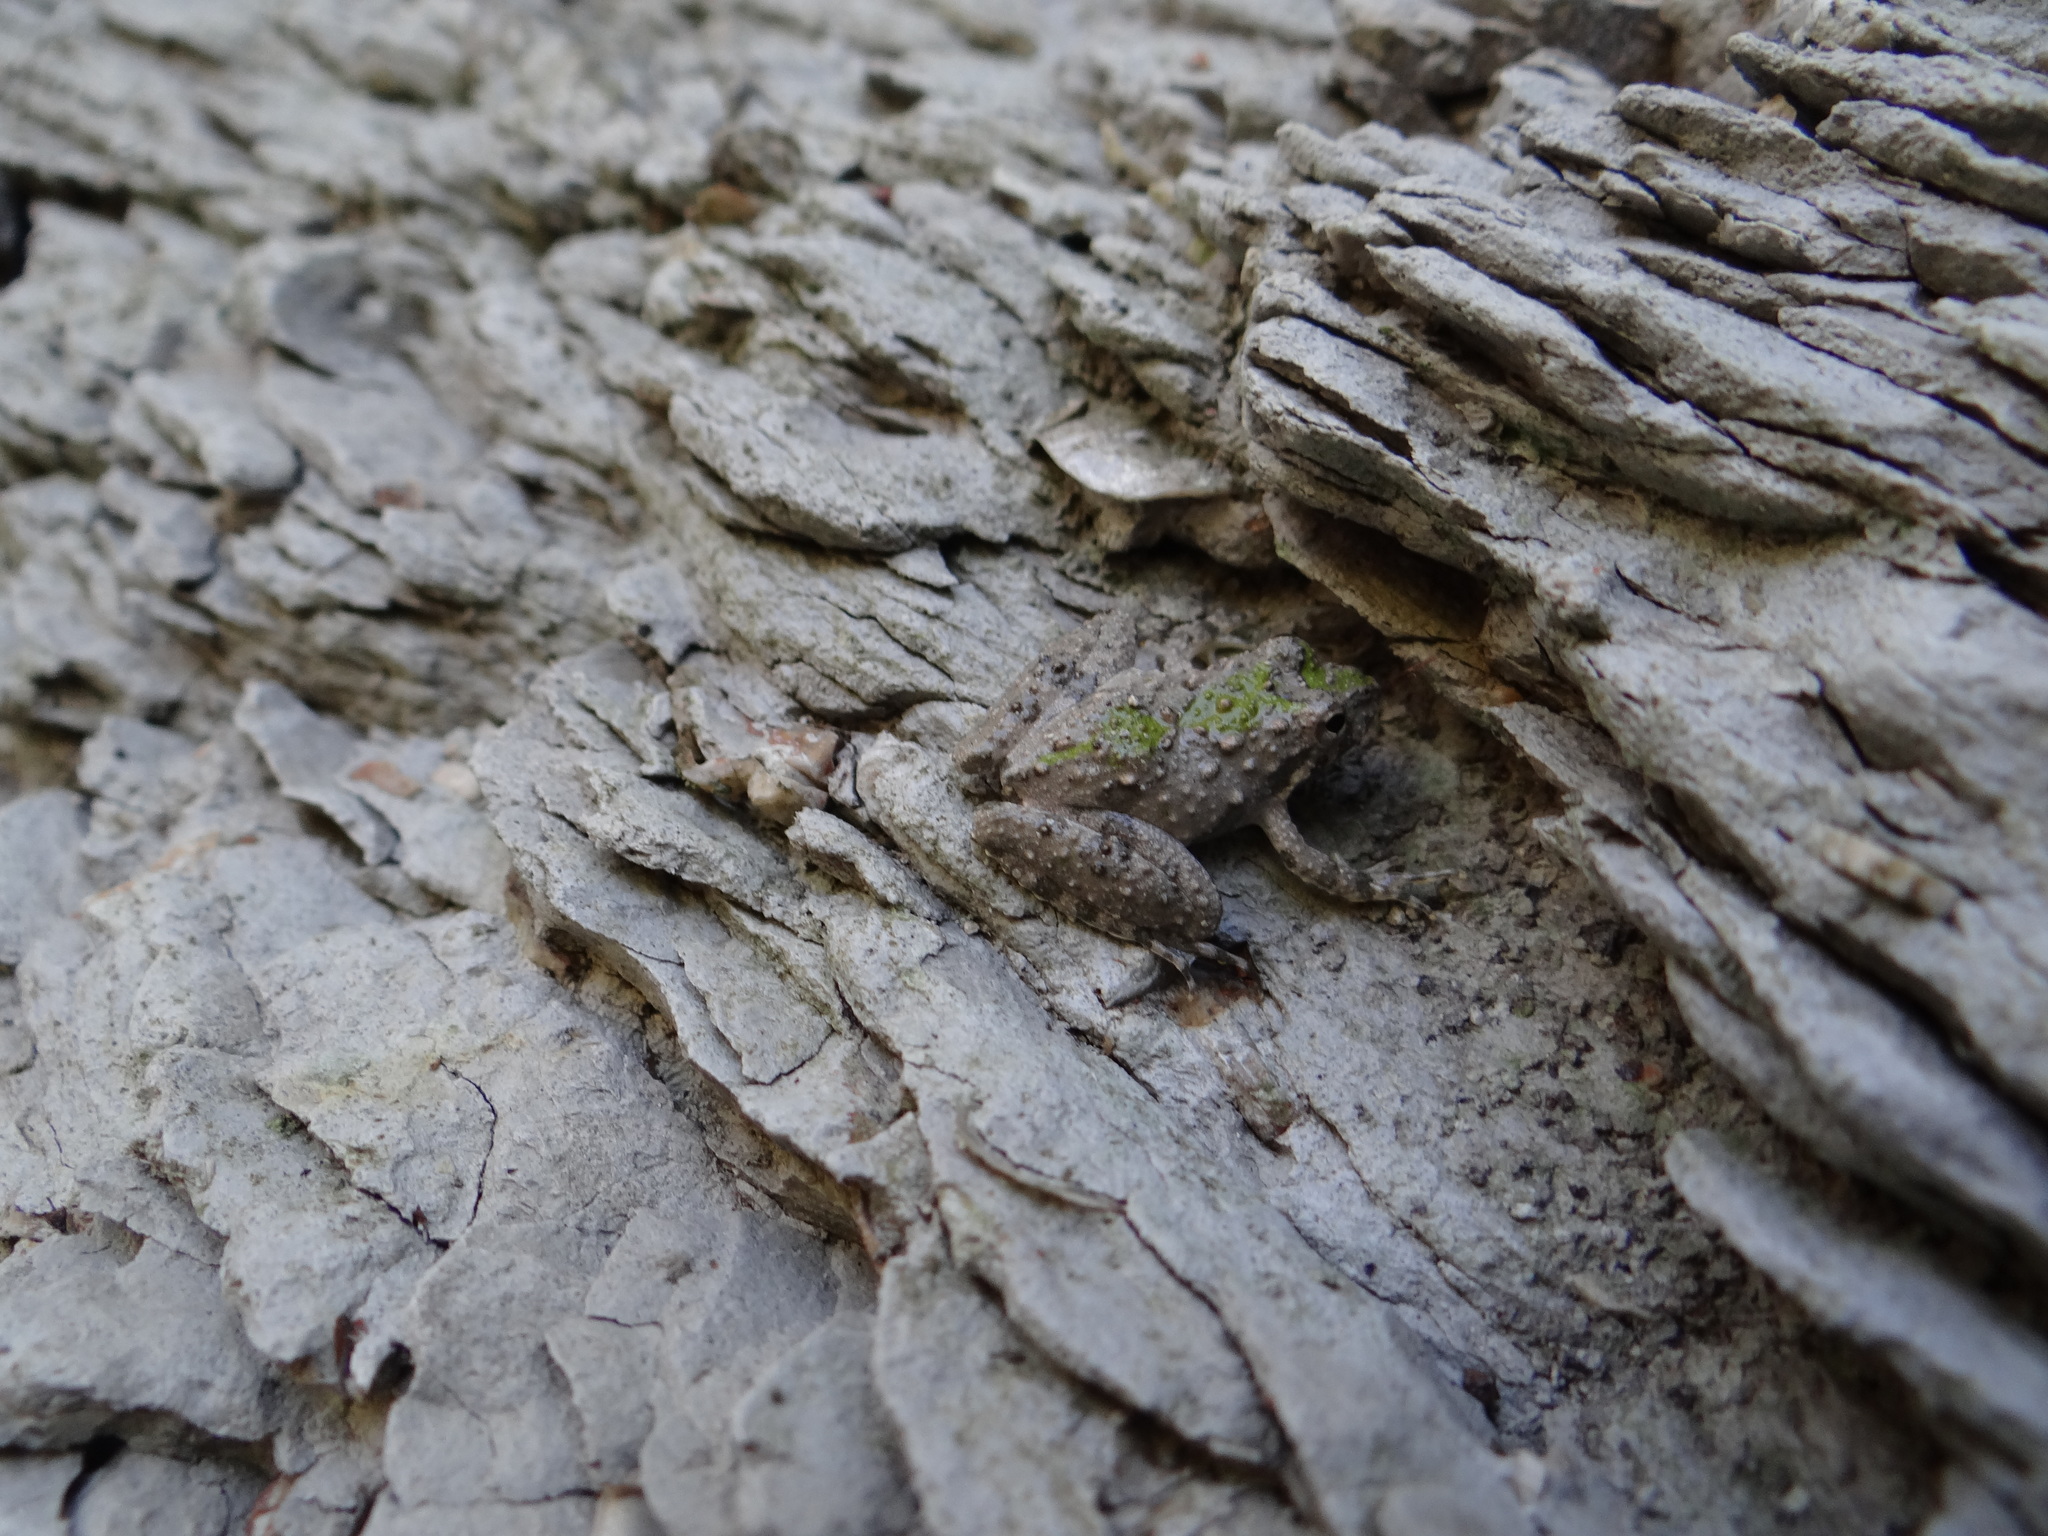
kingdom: Animalia
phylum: Chordata
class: Amphibia
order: Anura
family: Hylidae
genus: Acris
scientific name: Acris blanchardi
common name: Blanchard's cricket frog
